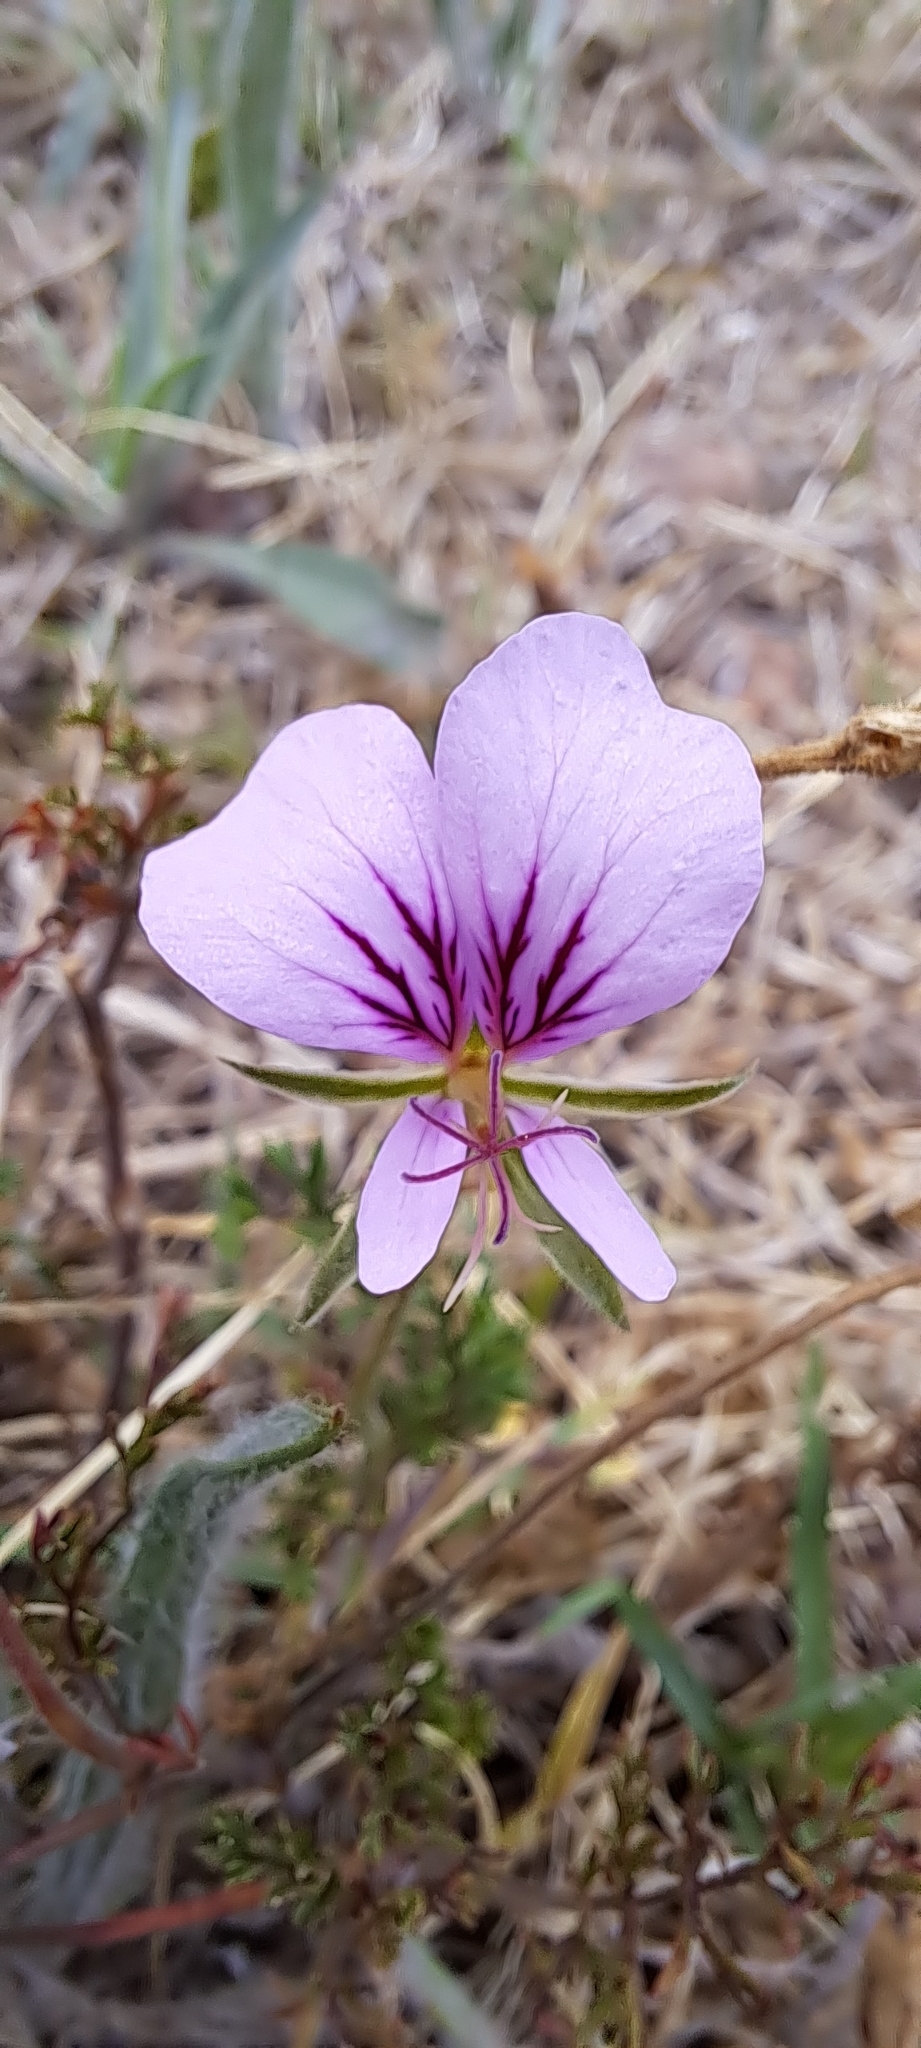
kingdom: Plantae
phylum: Tracheophyta
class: Magnoliopsida
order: Geraniales
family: Geraniaceae
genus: Pelargonium
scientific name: Pelargonium myrrhifolium
